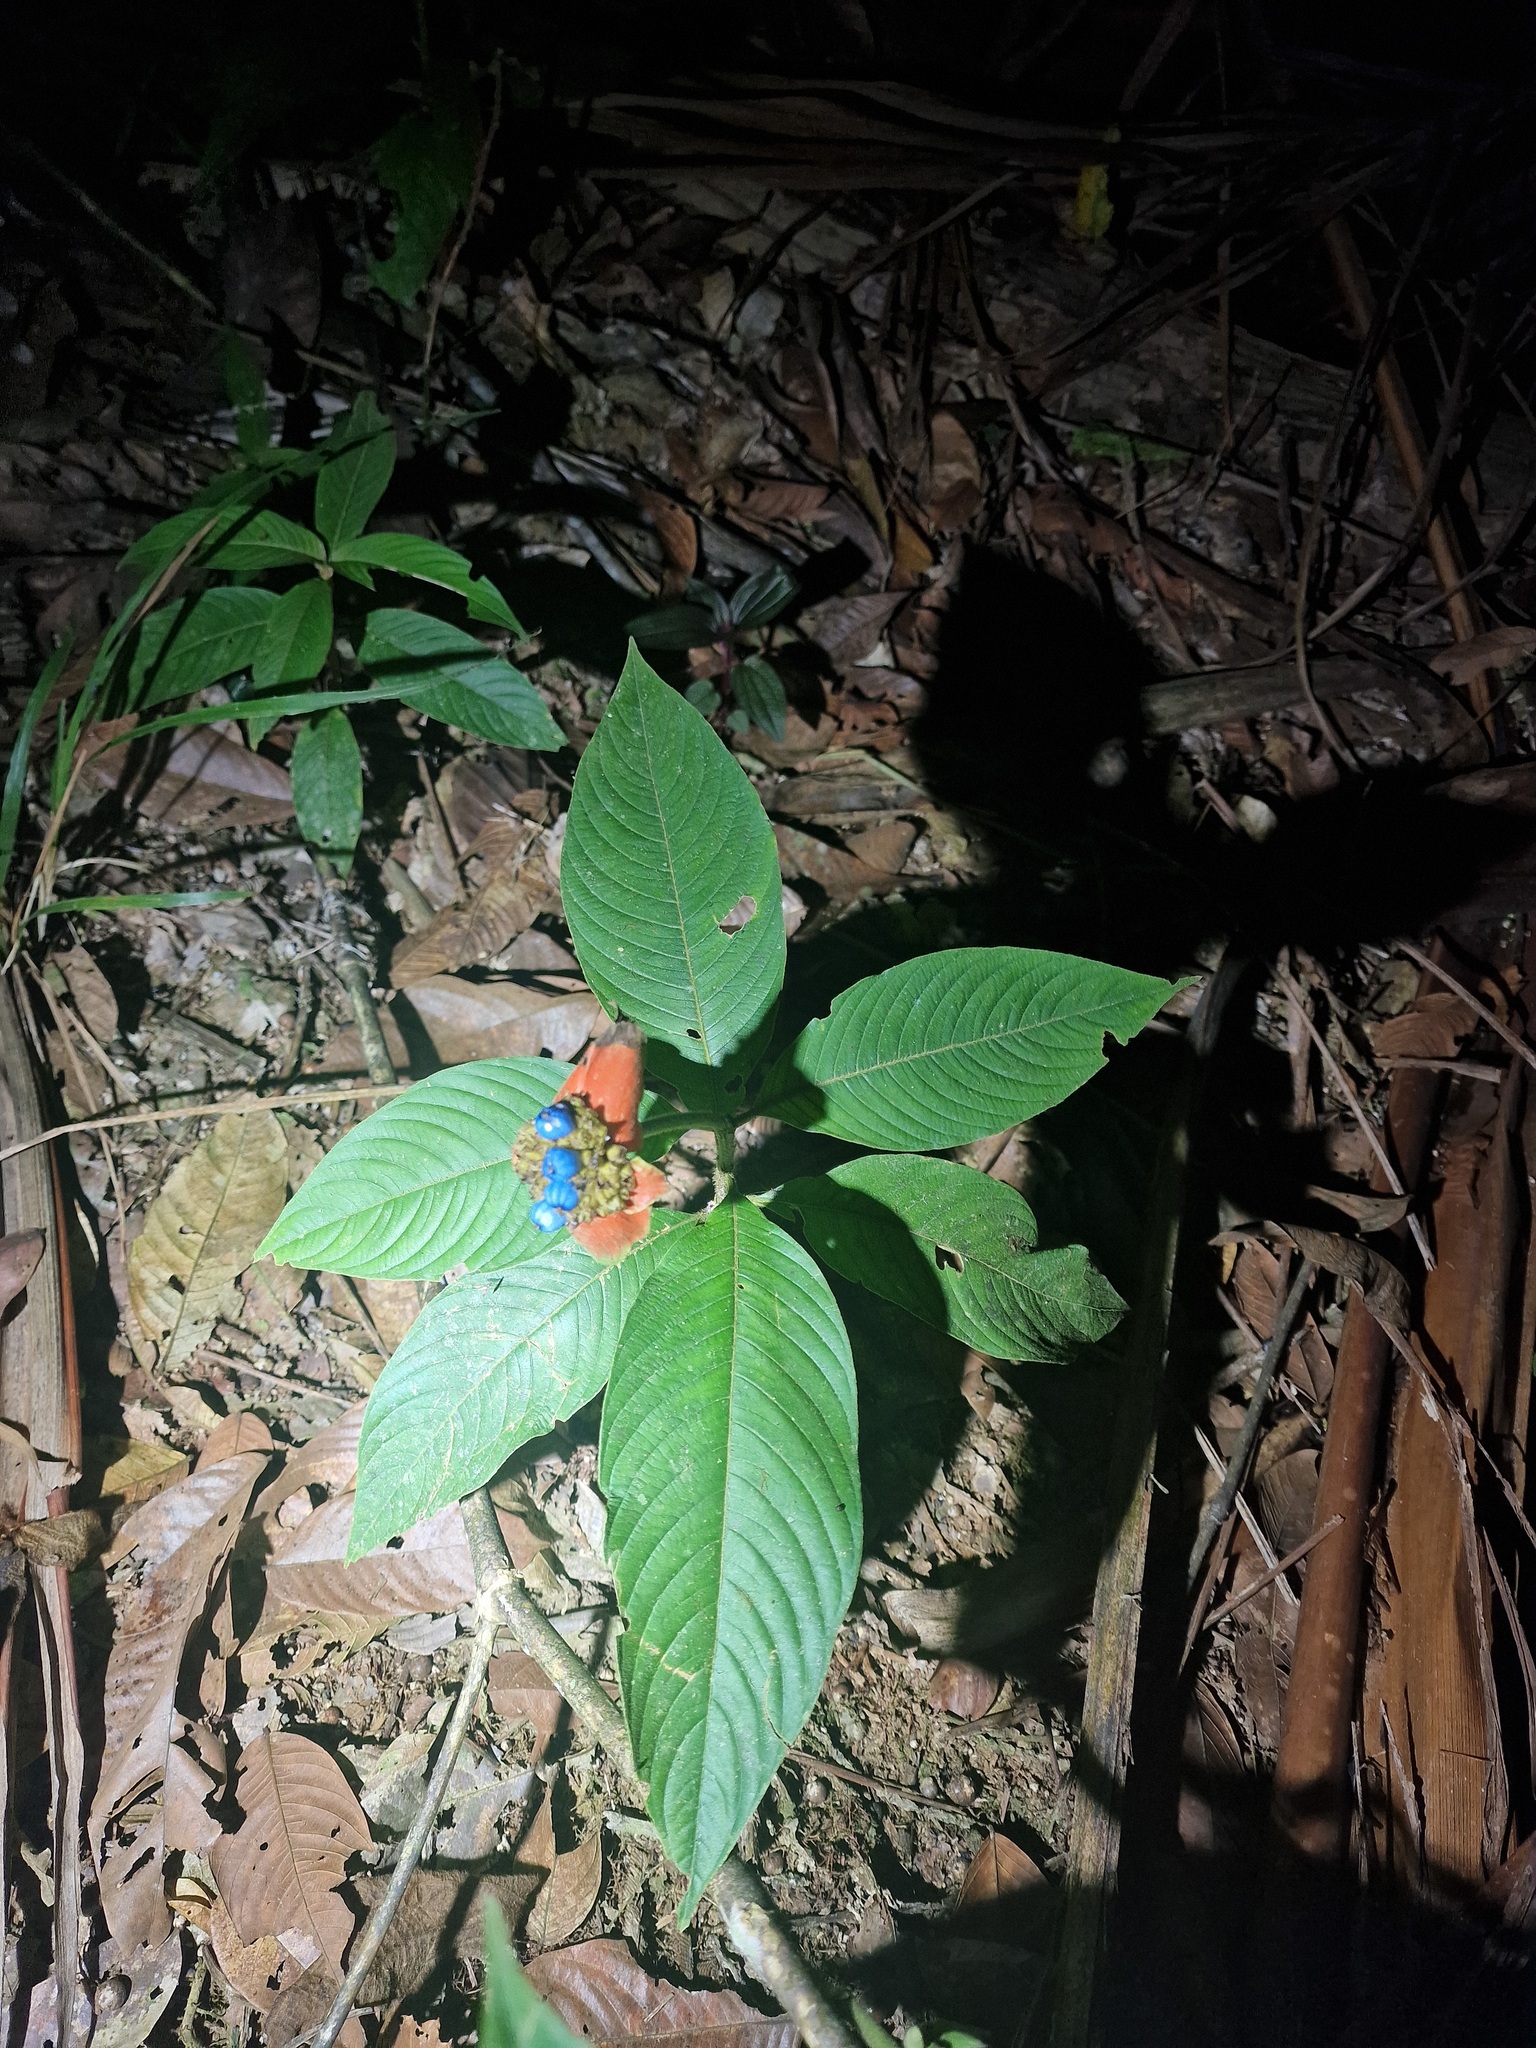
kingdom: Plantae
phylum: Tracheophyta
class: Magnoliopsida
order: Gentianales
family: Rubiaceae
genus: Palicourea
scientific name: Palicourea tomentosa
